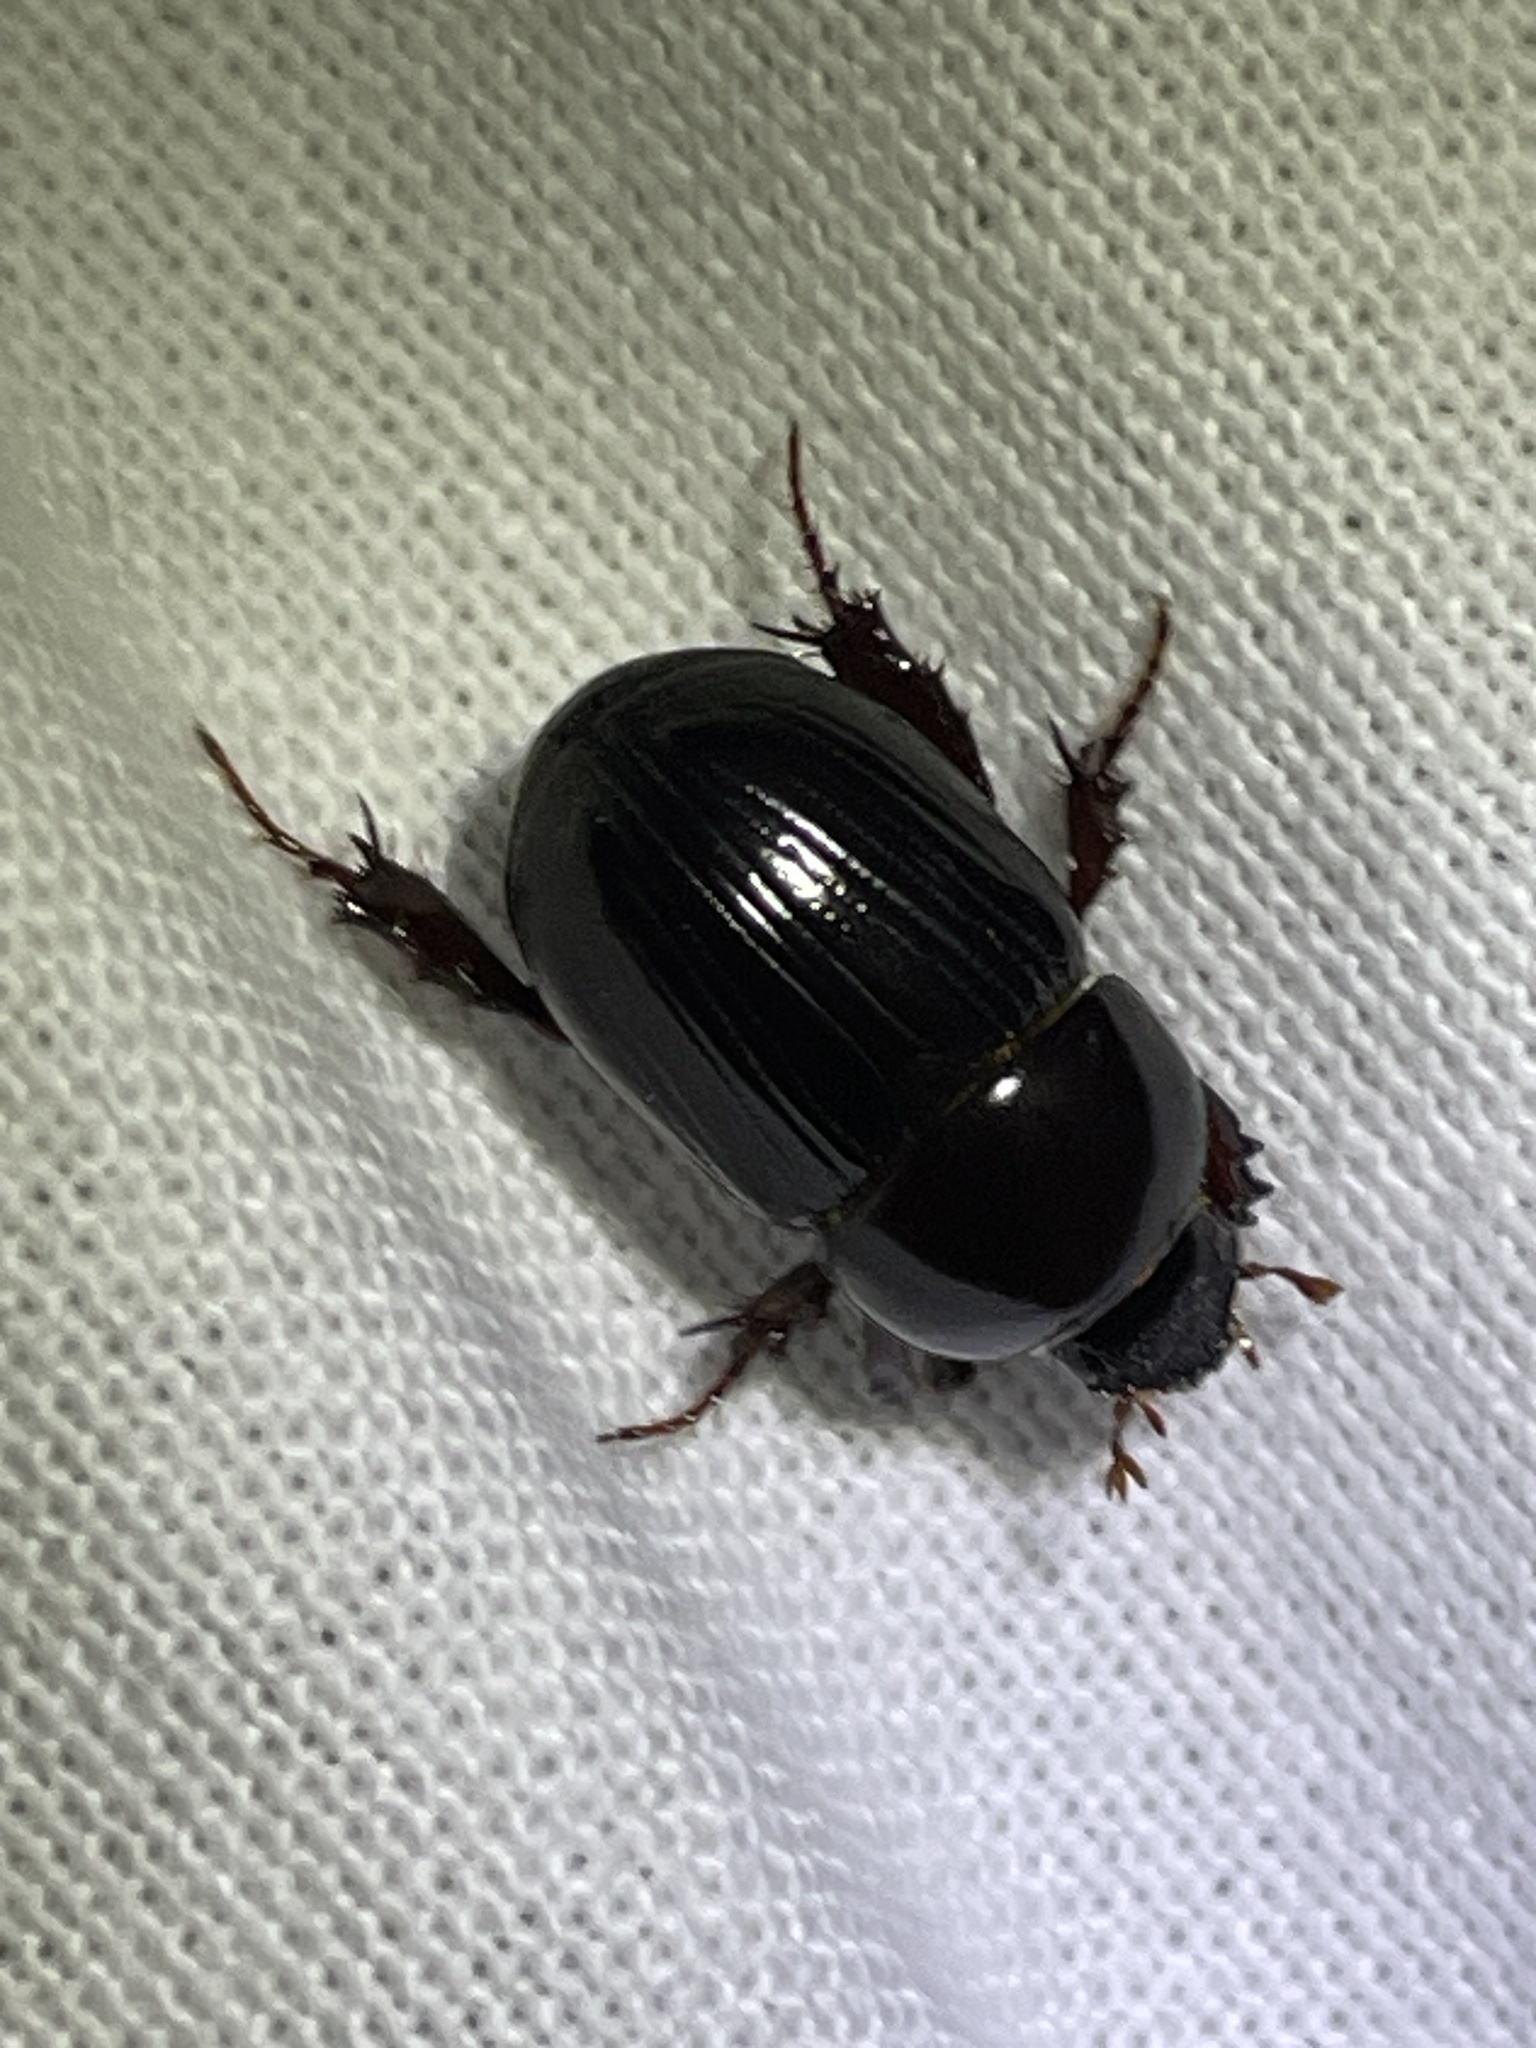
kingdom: Animalia
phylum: Arthropoda
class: Insecta
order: Coleoptera
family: Scarabaeidae
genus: Heteronychus
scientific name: Heteronychus arator
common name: African black beetle
